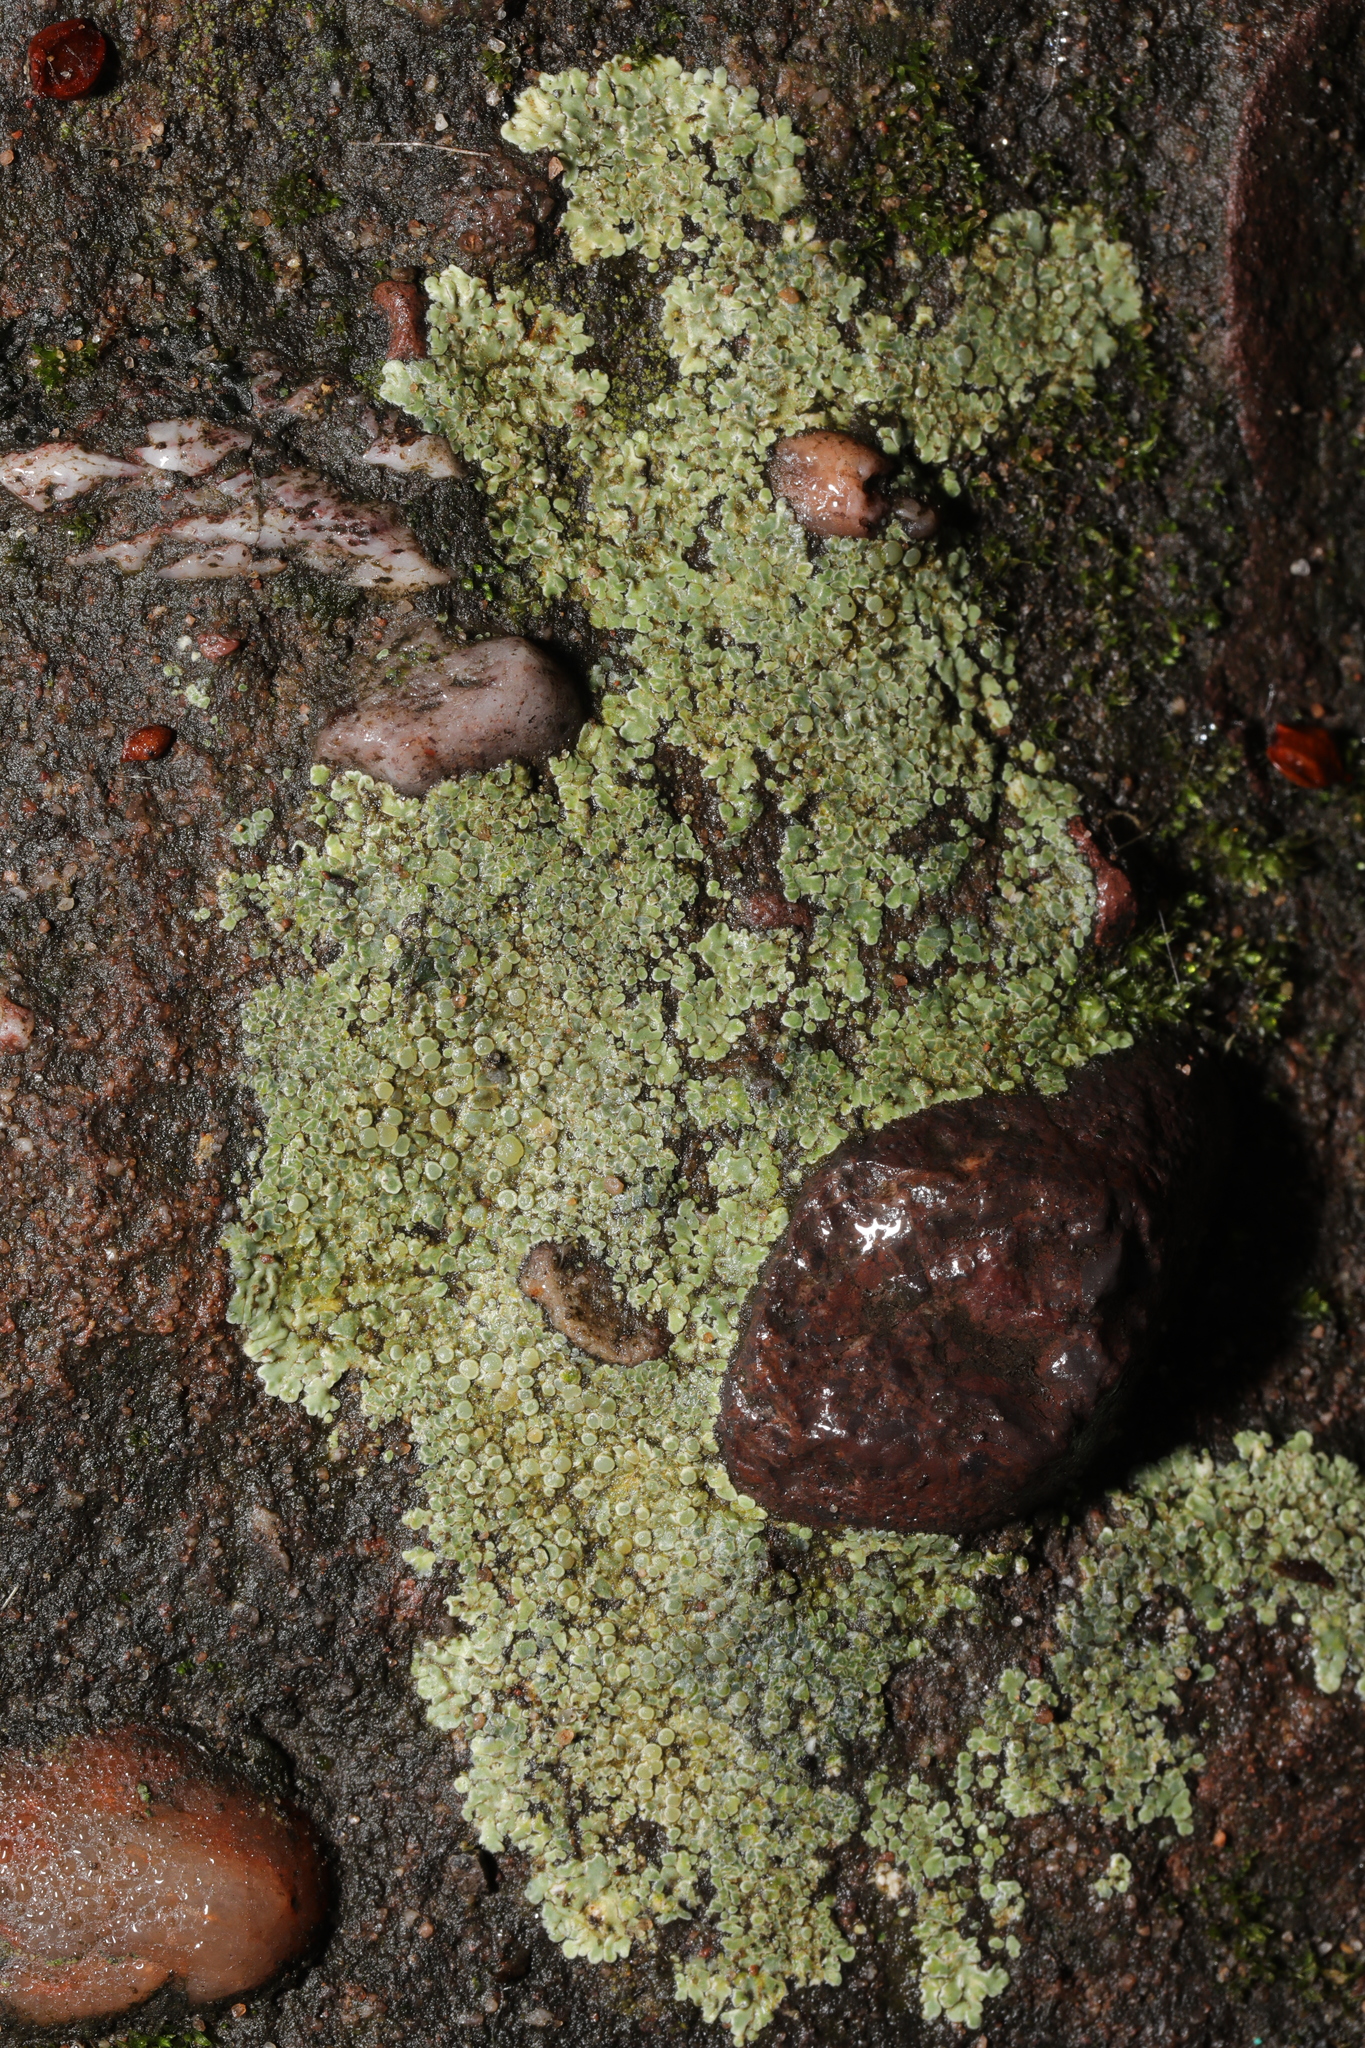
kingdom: Fungi
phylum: Ascomycota
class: Lecanoromycetes
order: Lecanorales
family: Lecanoraceae
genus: Protoparmeliopsis
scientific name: Protoparmeliopsis muralis
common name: Stonewall rim lichen
